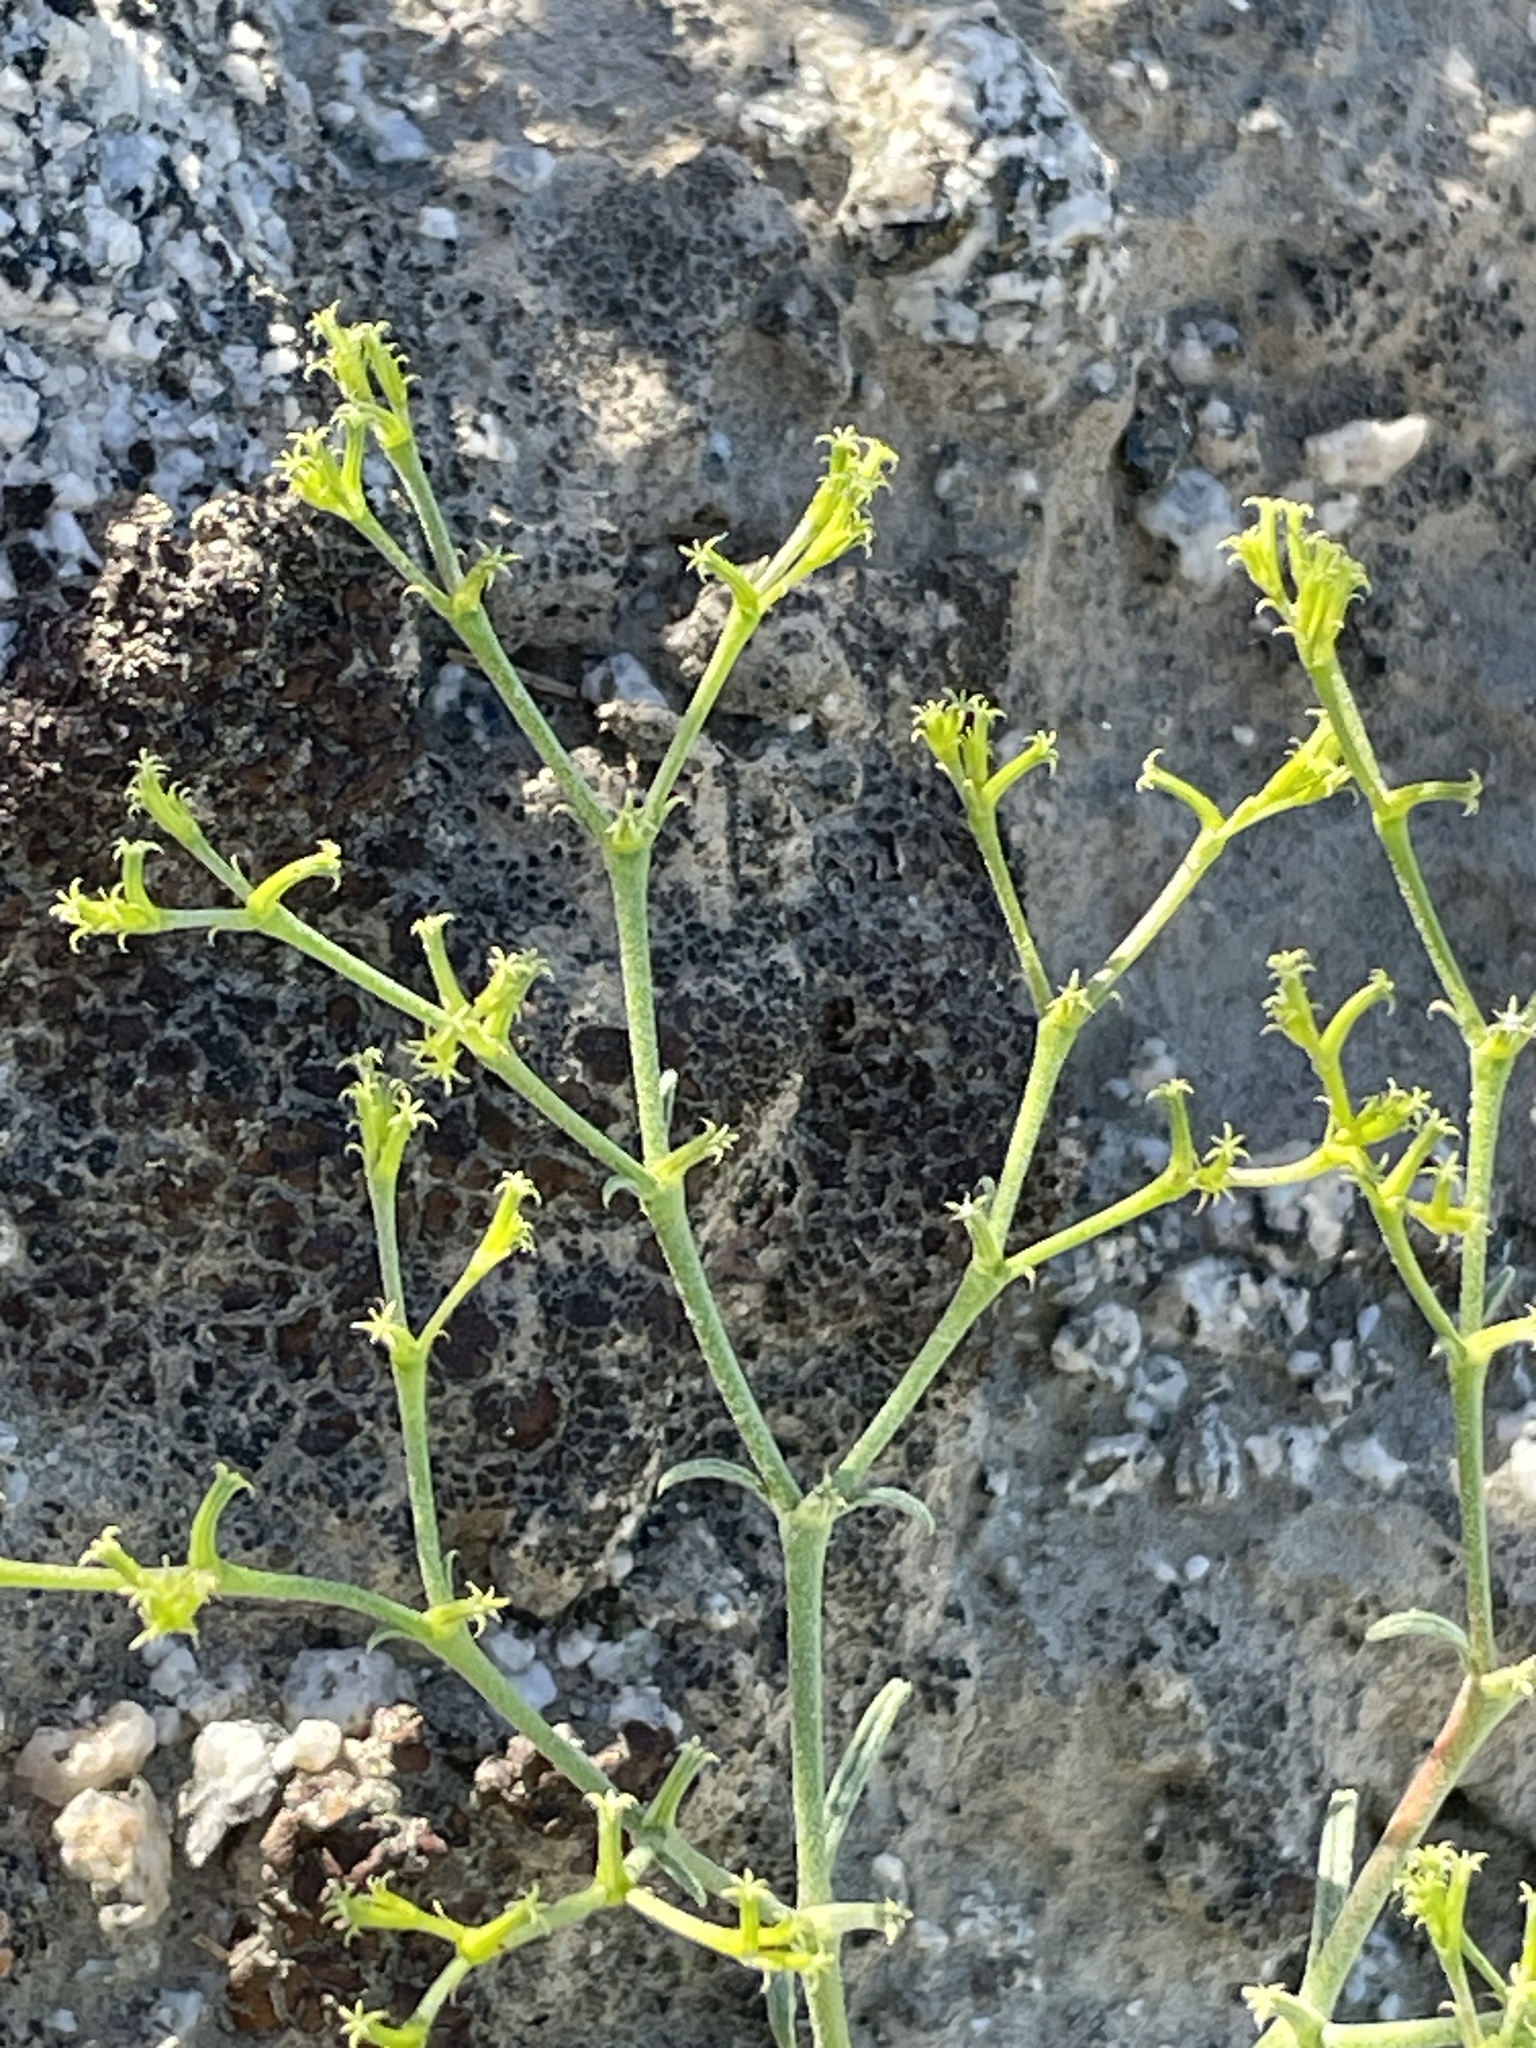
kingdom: Plantae
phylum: Tracheophyta
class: Magnoliopsida
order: Caryophyllales
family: Polygonaceae
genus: Chorizanthe
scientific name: Chorizanthe brevicornu
